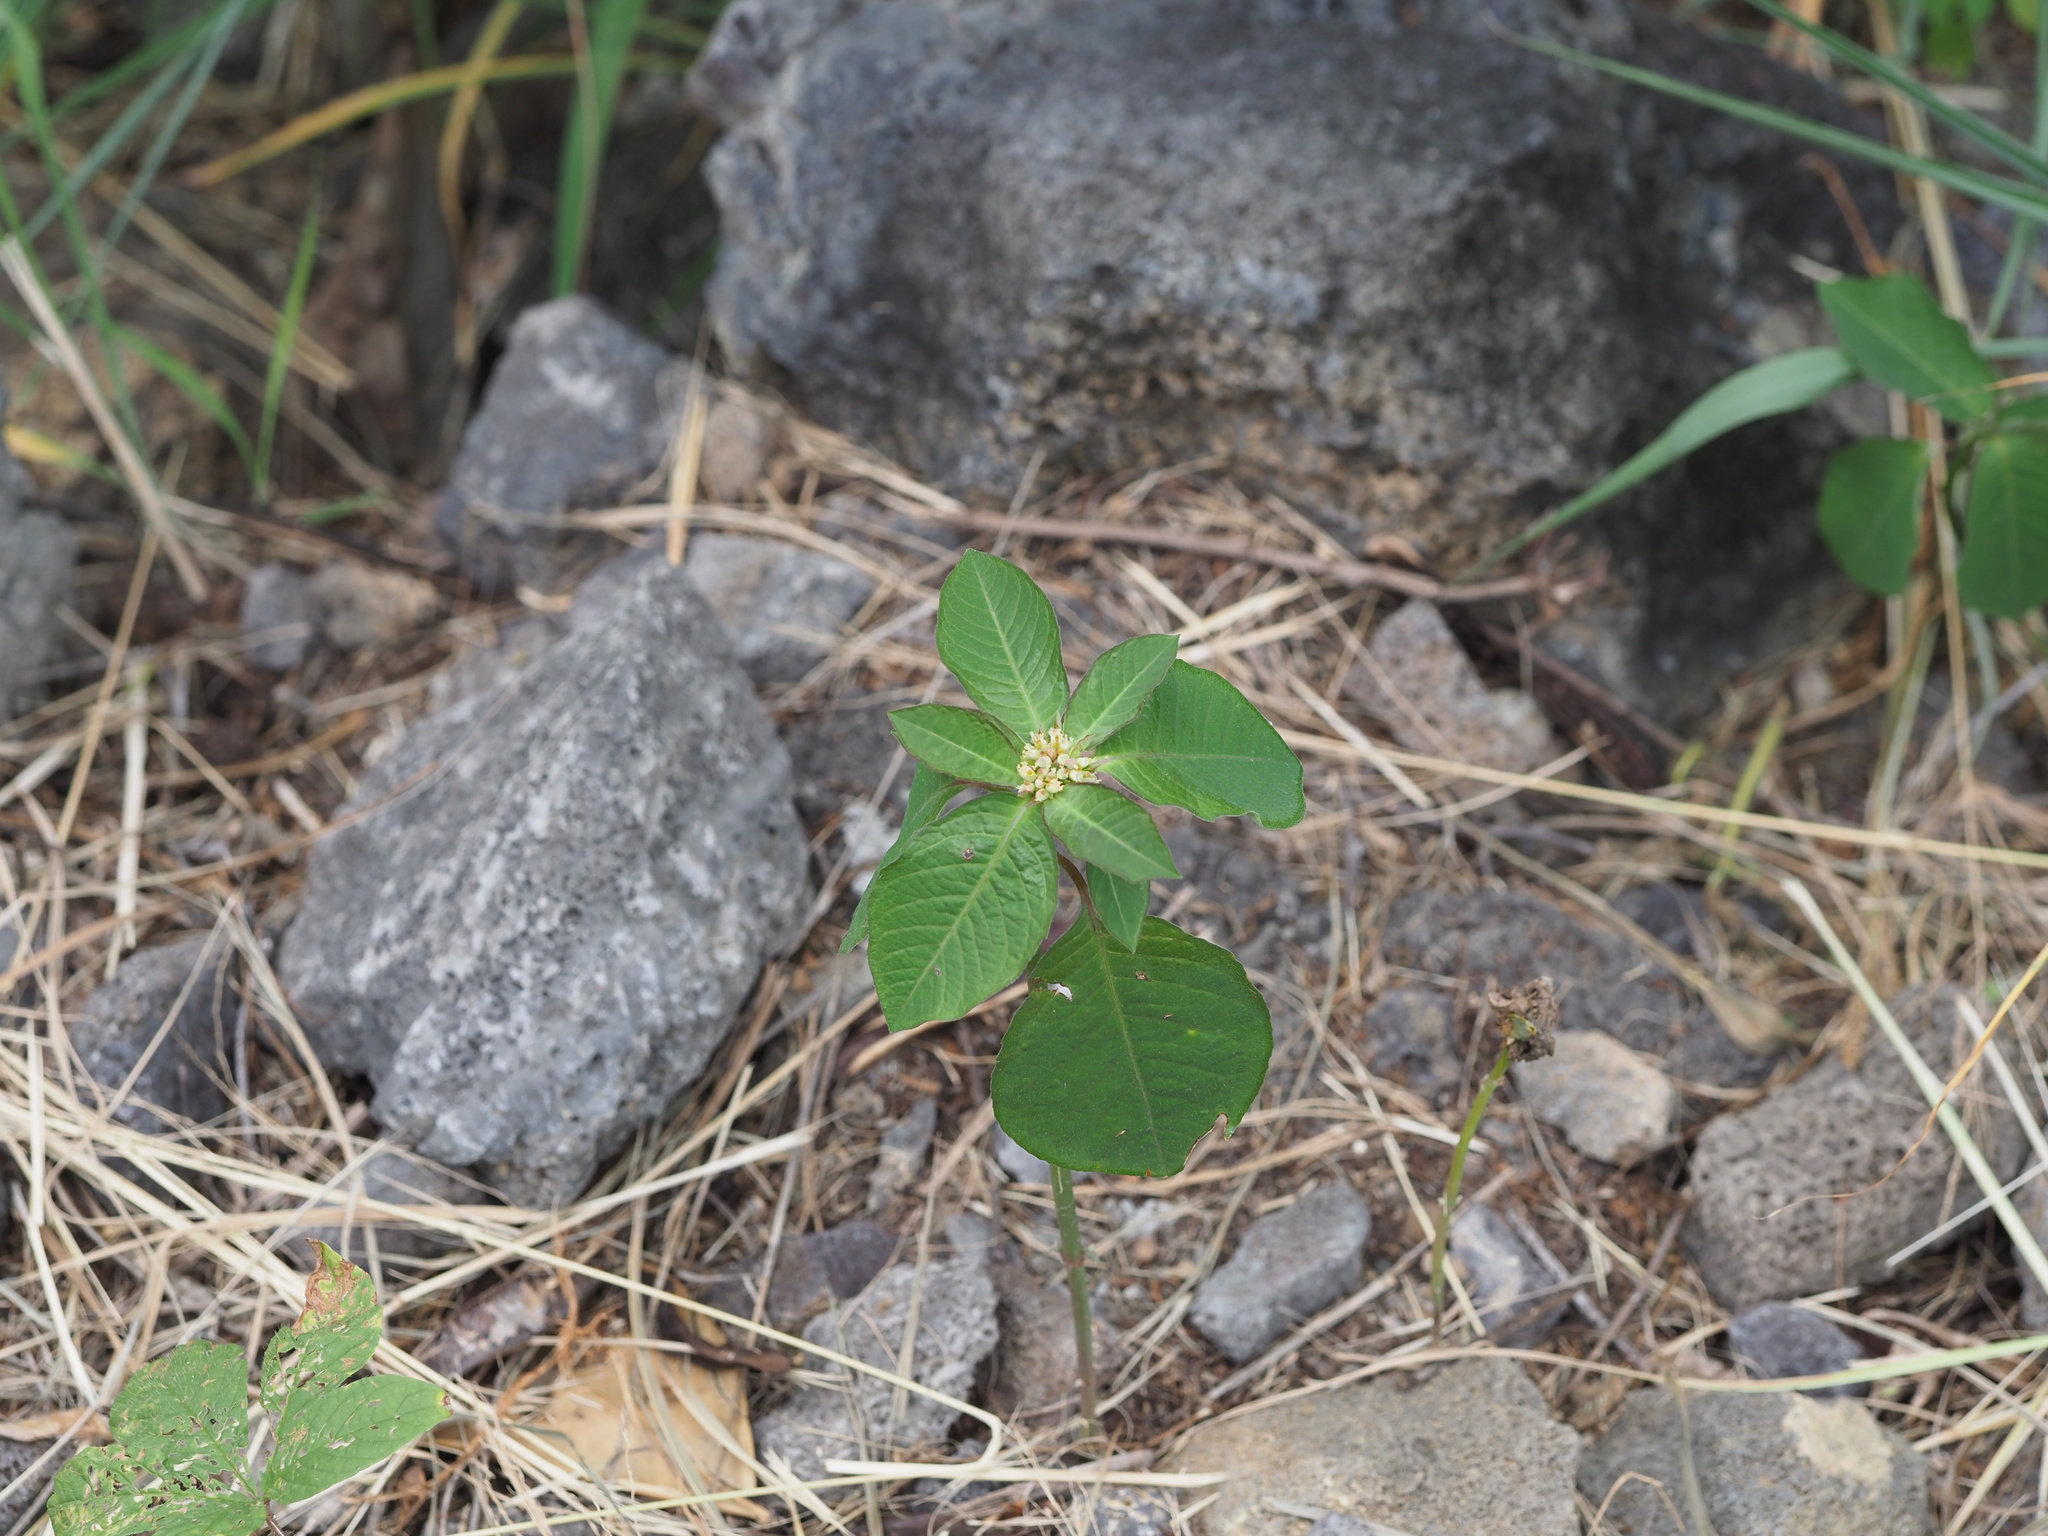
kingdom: Plantae
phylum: Tracheophyta
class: Magnoliopsida
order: Malpighiales
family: Euphorbiaceae
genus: Euphorbia
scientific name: Euphorbia heterophylla
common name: Mexican fireplant
